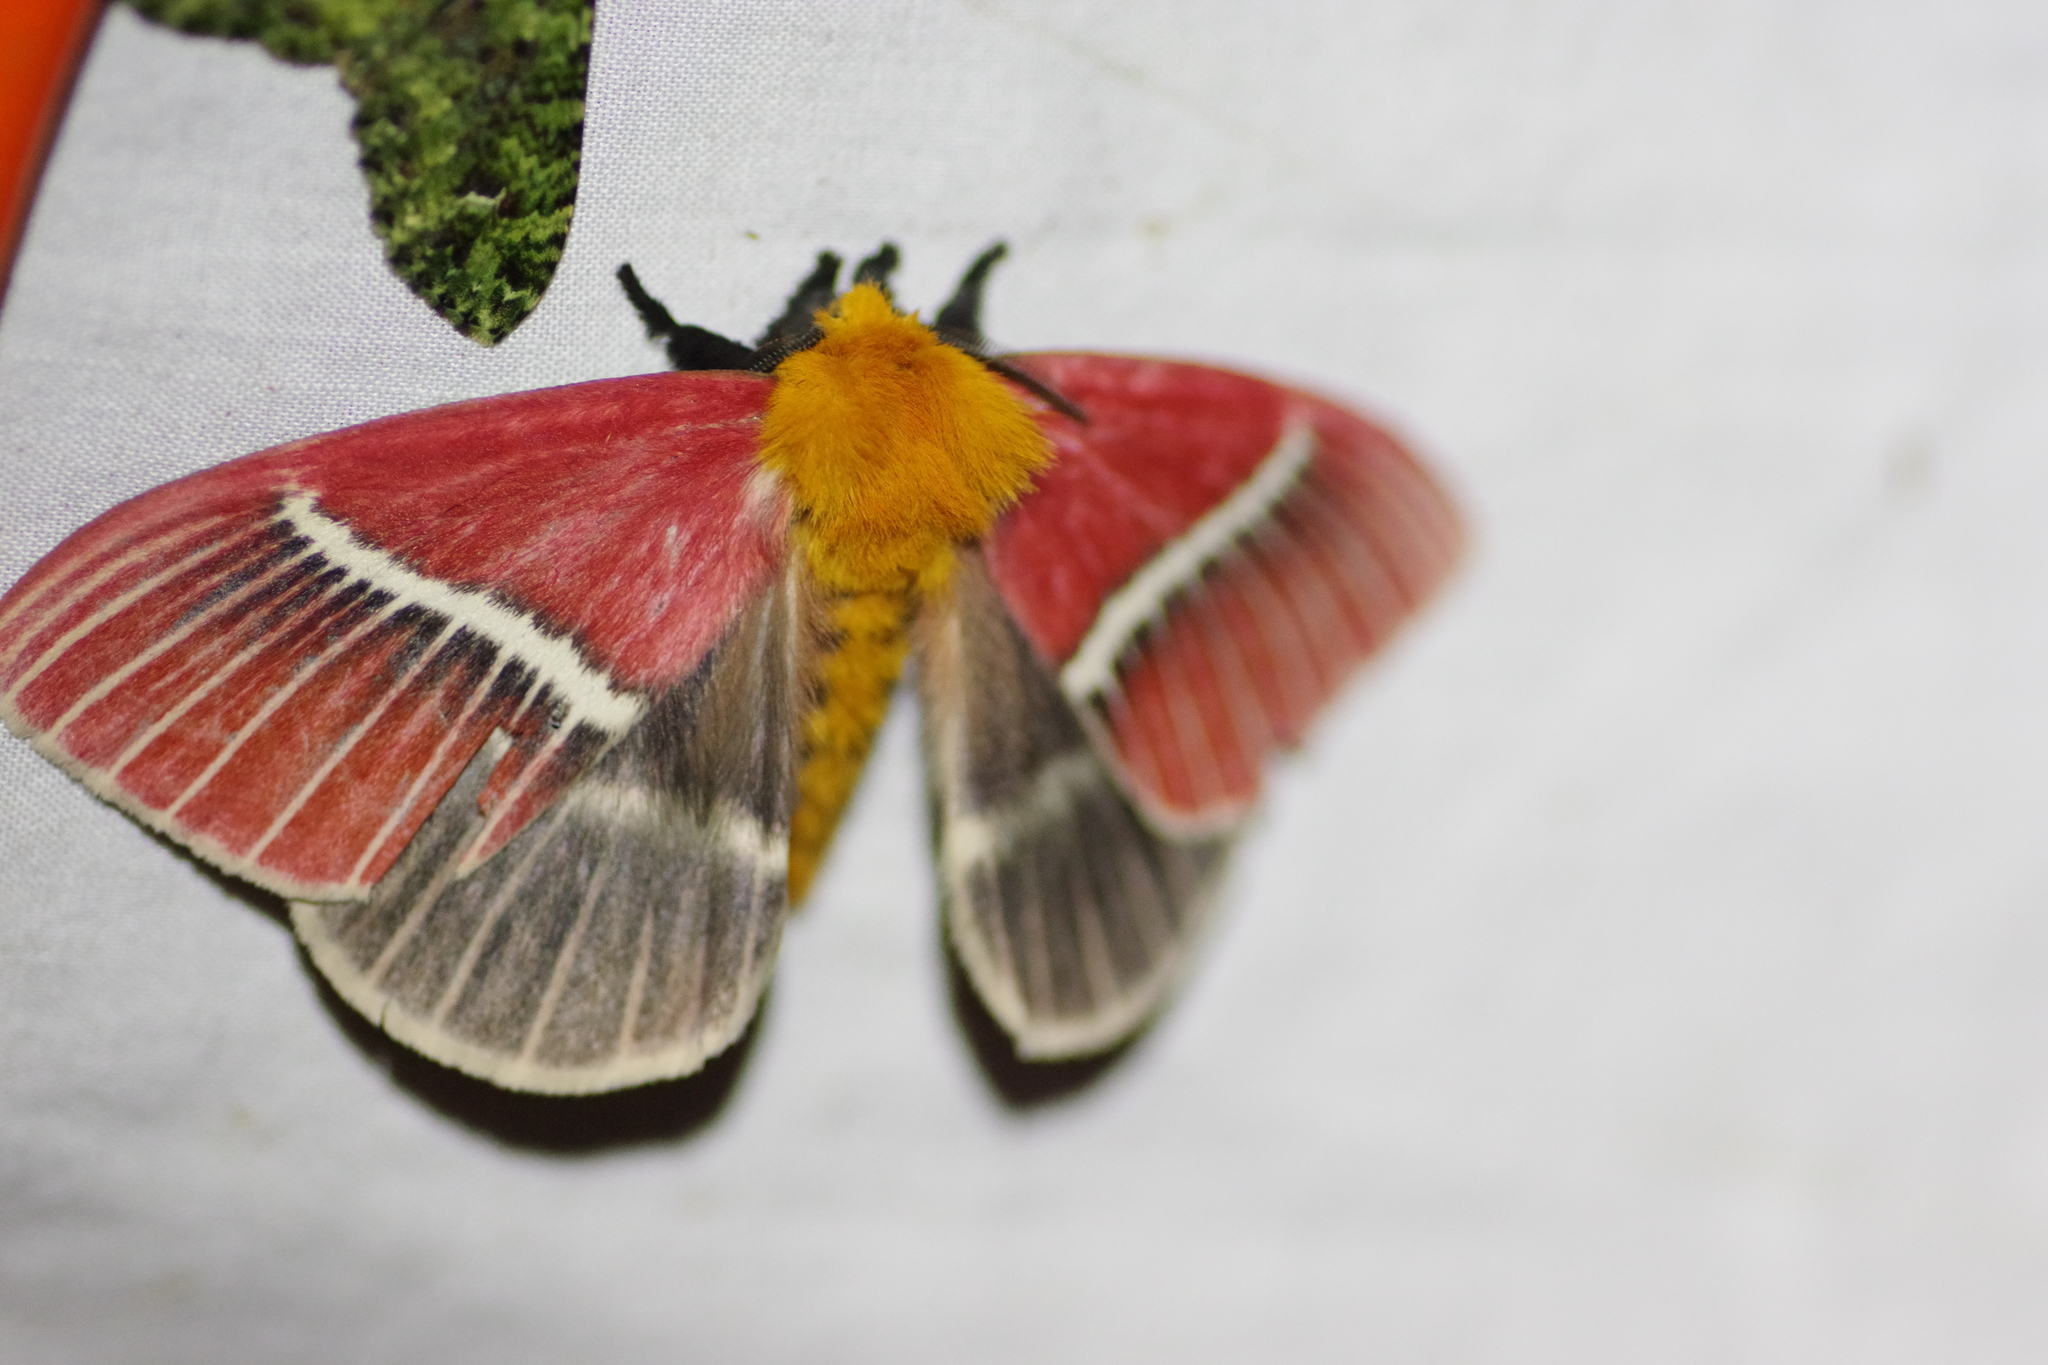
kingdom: Animalia
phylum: Arthropoda
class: Insecta
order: Lepidoptera
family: Saturniidae
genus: Pseudodirphia
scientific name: Pseudodirphia menander
